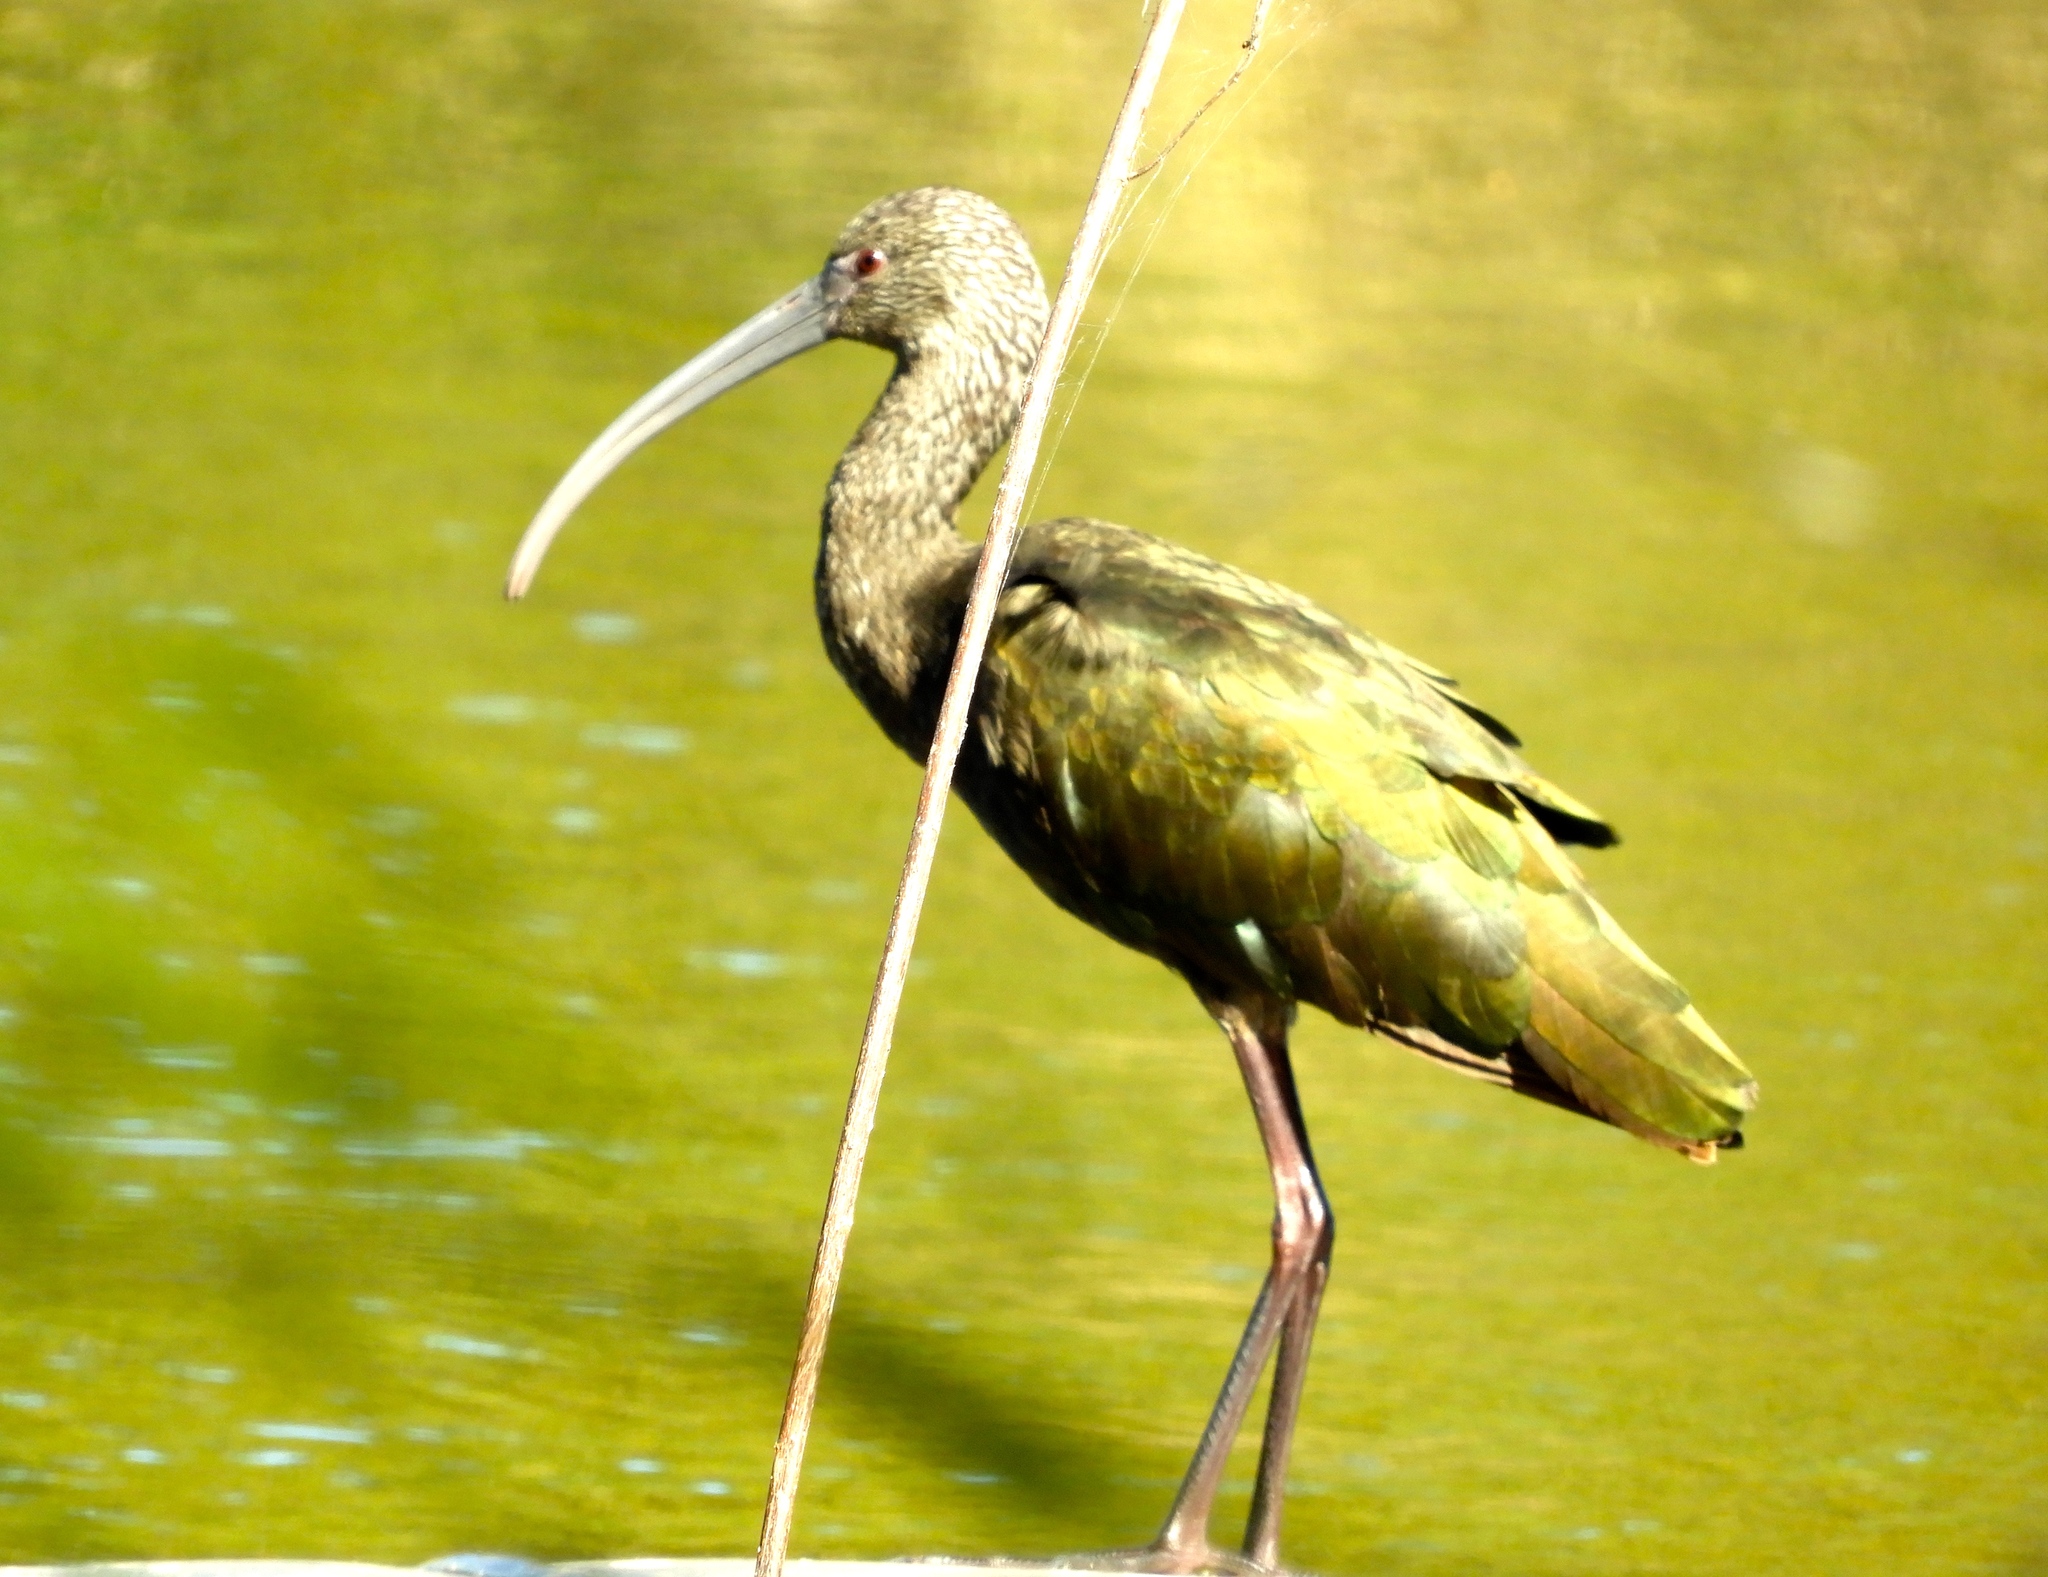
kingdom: Animalia
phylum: Chordata
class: Aves
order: Pelecaniformes
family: Threskiornithidae
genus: Plegadis
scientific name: Plegadis chihi
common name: White-faced ibis
